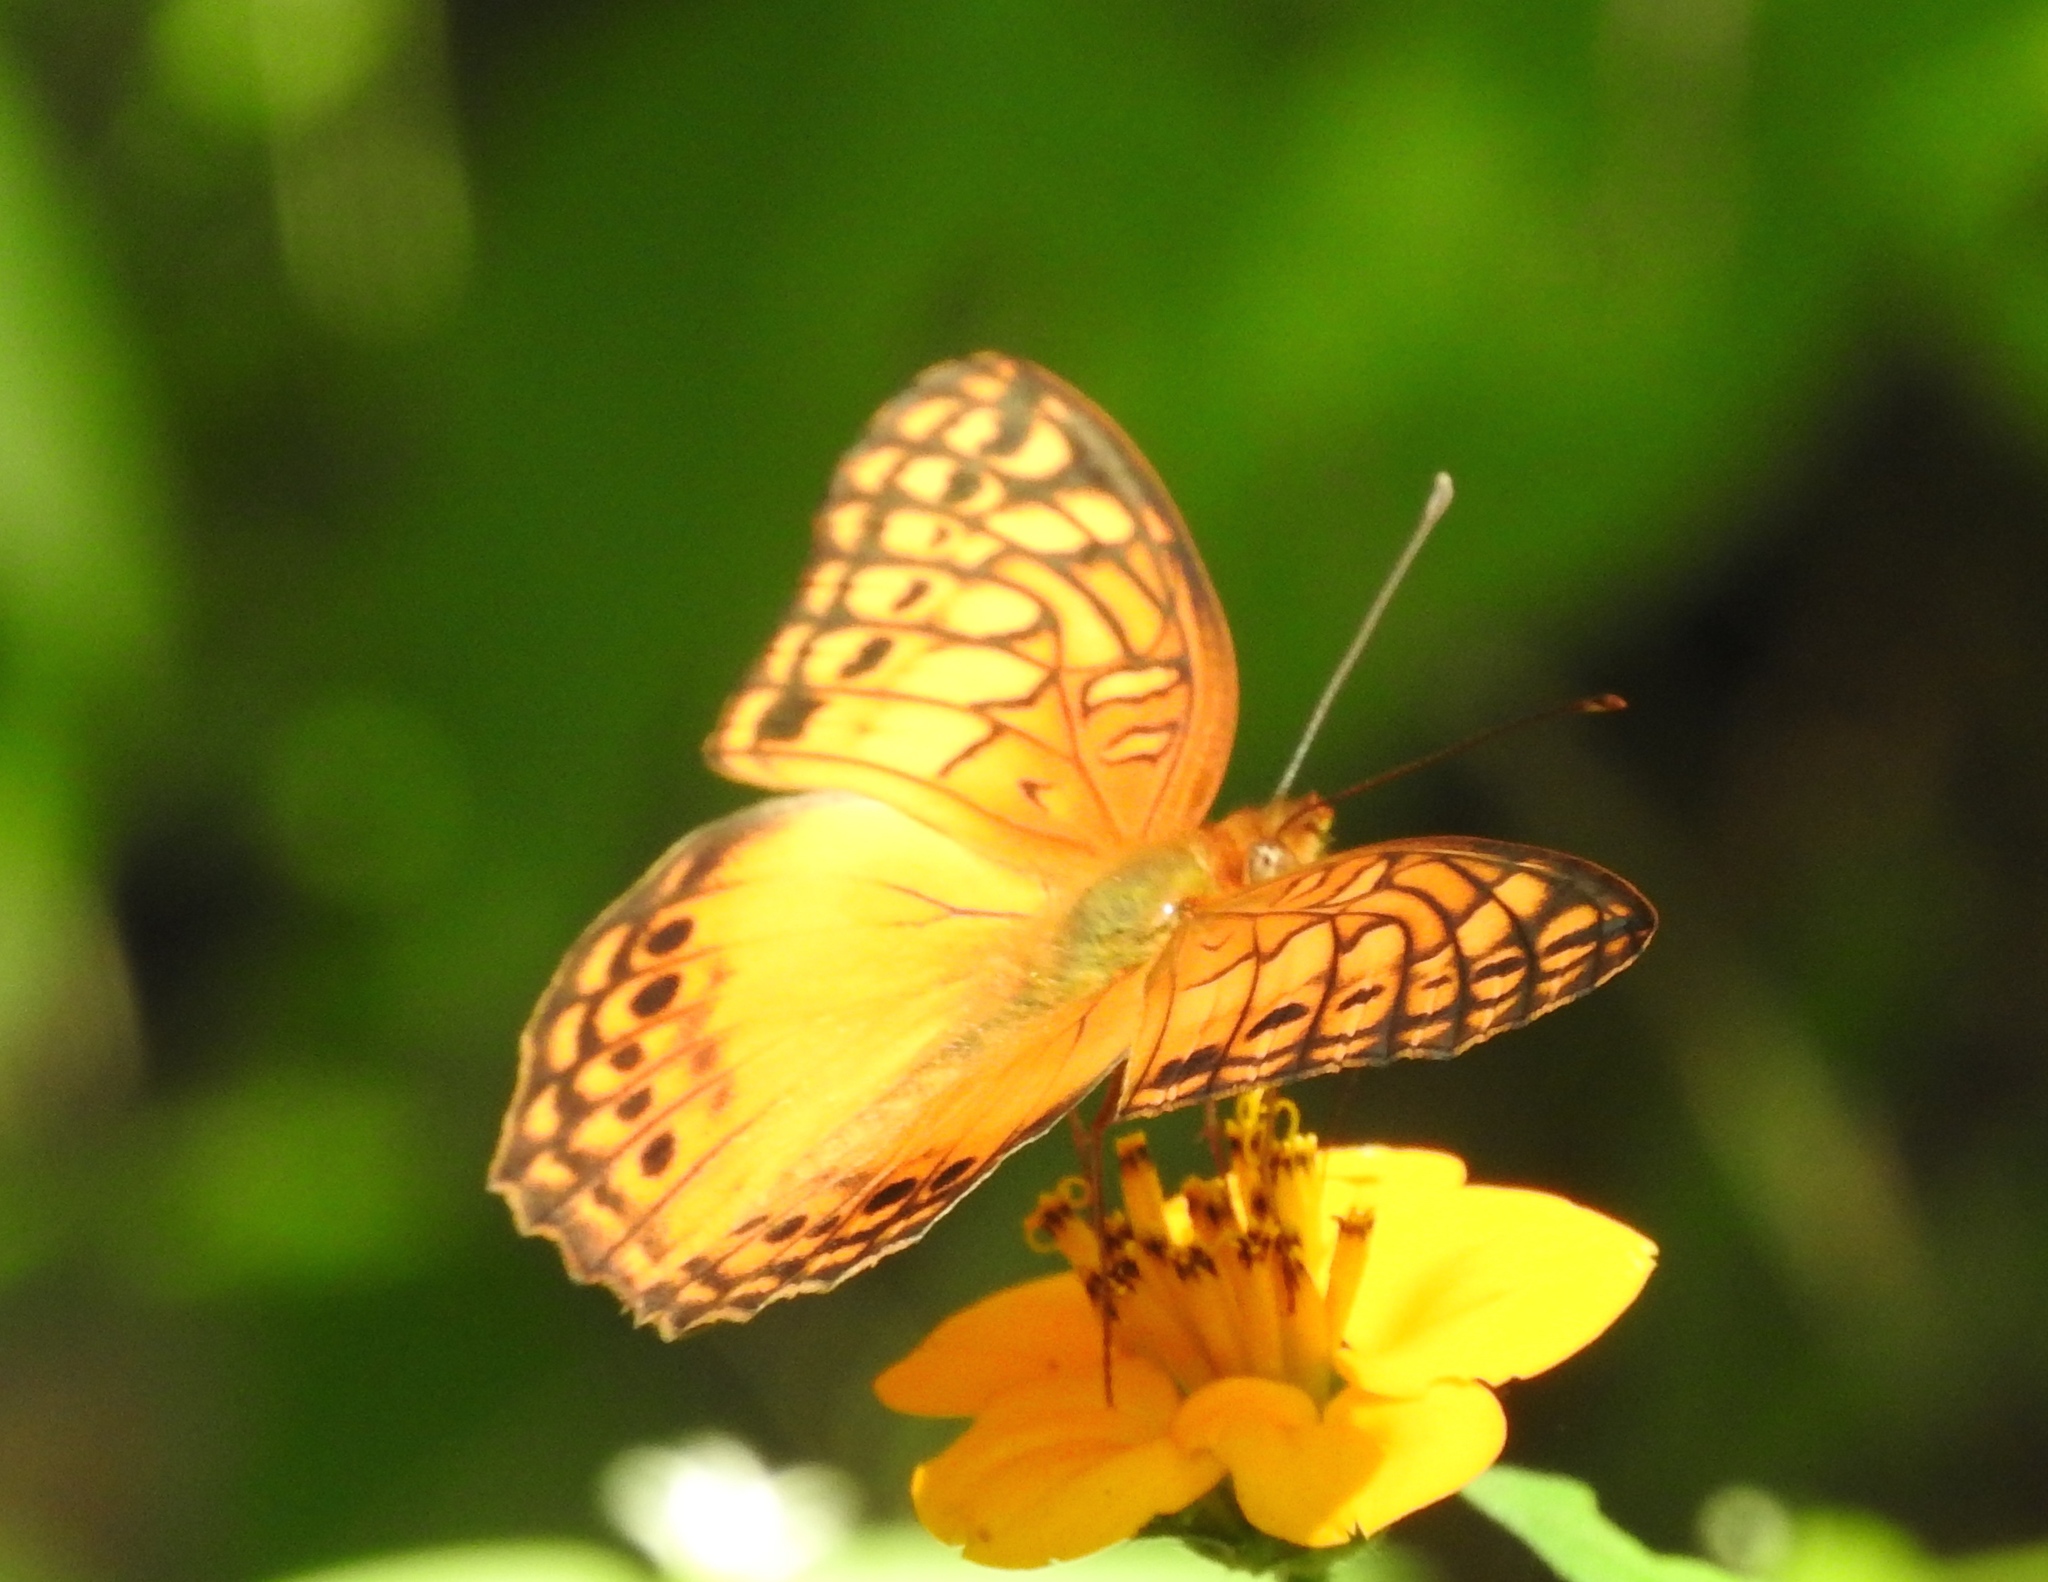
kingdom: Animalia
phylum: Arthropoda
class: Insecta
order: Lepidoptera
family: Nymphalidae
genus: Euptoieta
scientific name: Euptoieta hegesia
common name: Mexican fritillary
